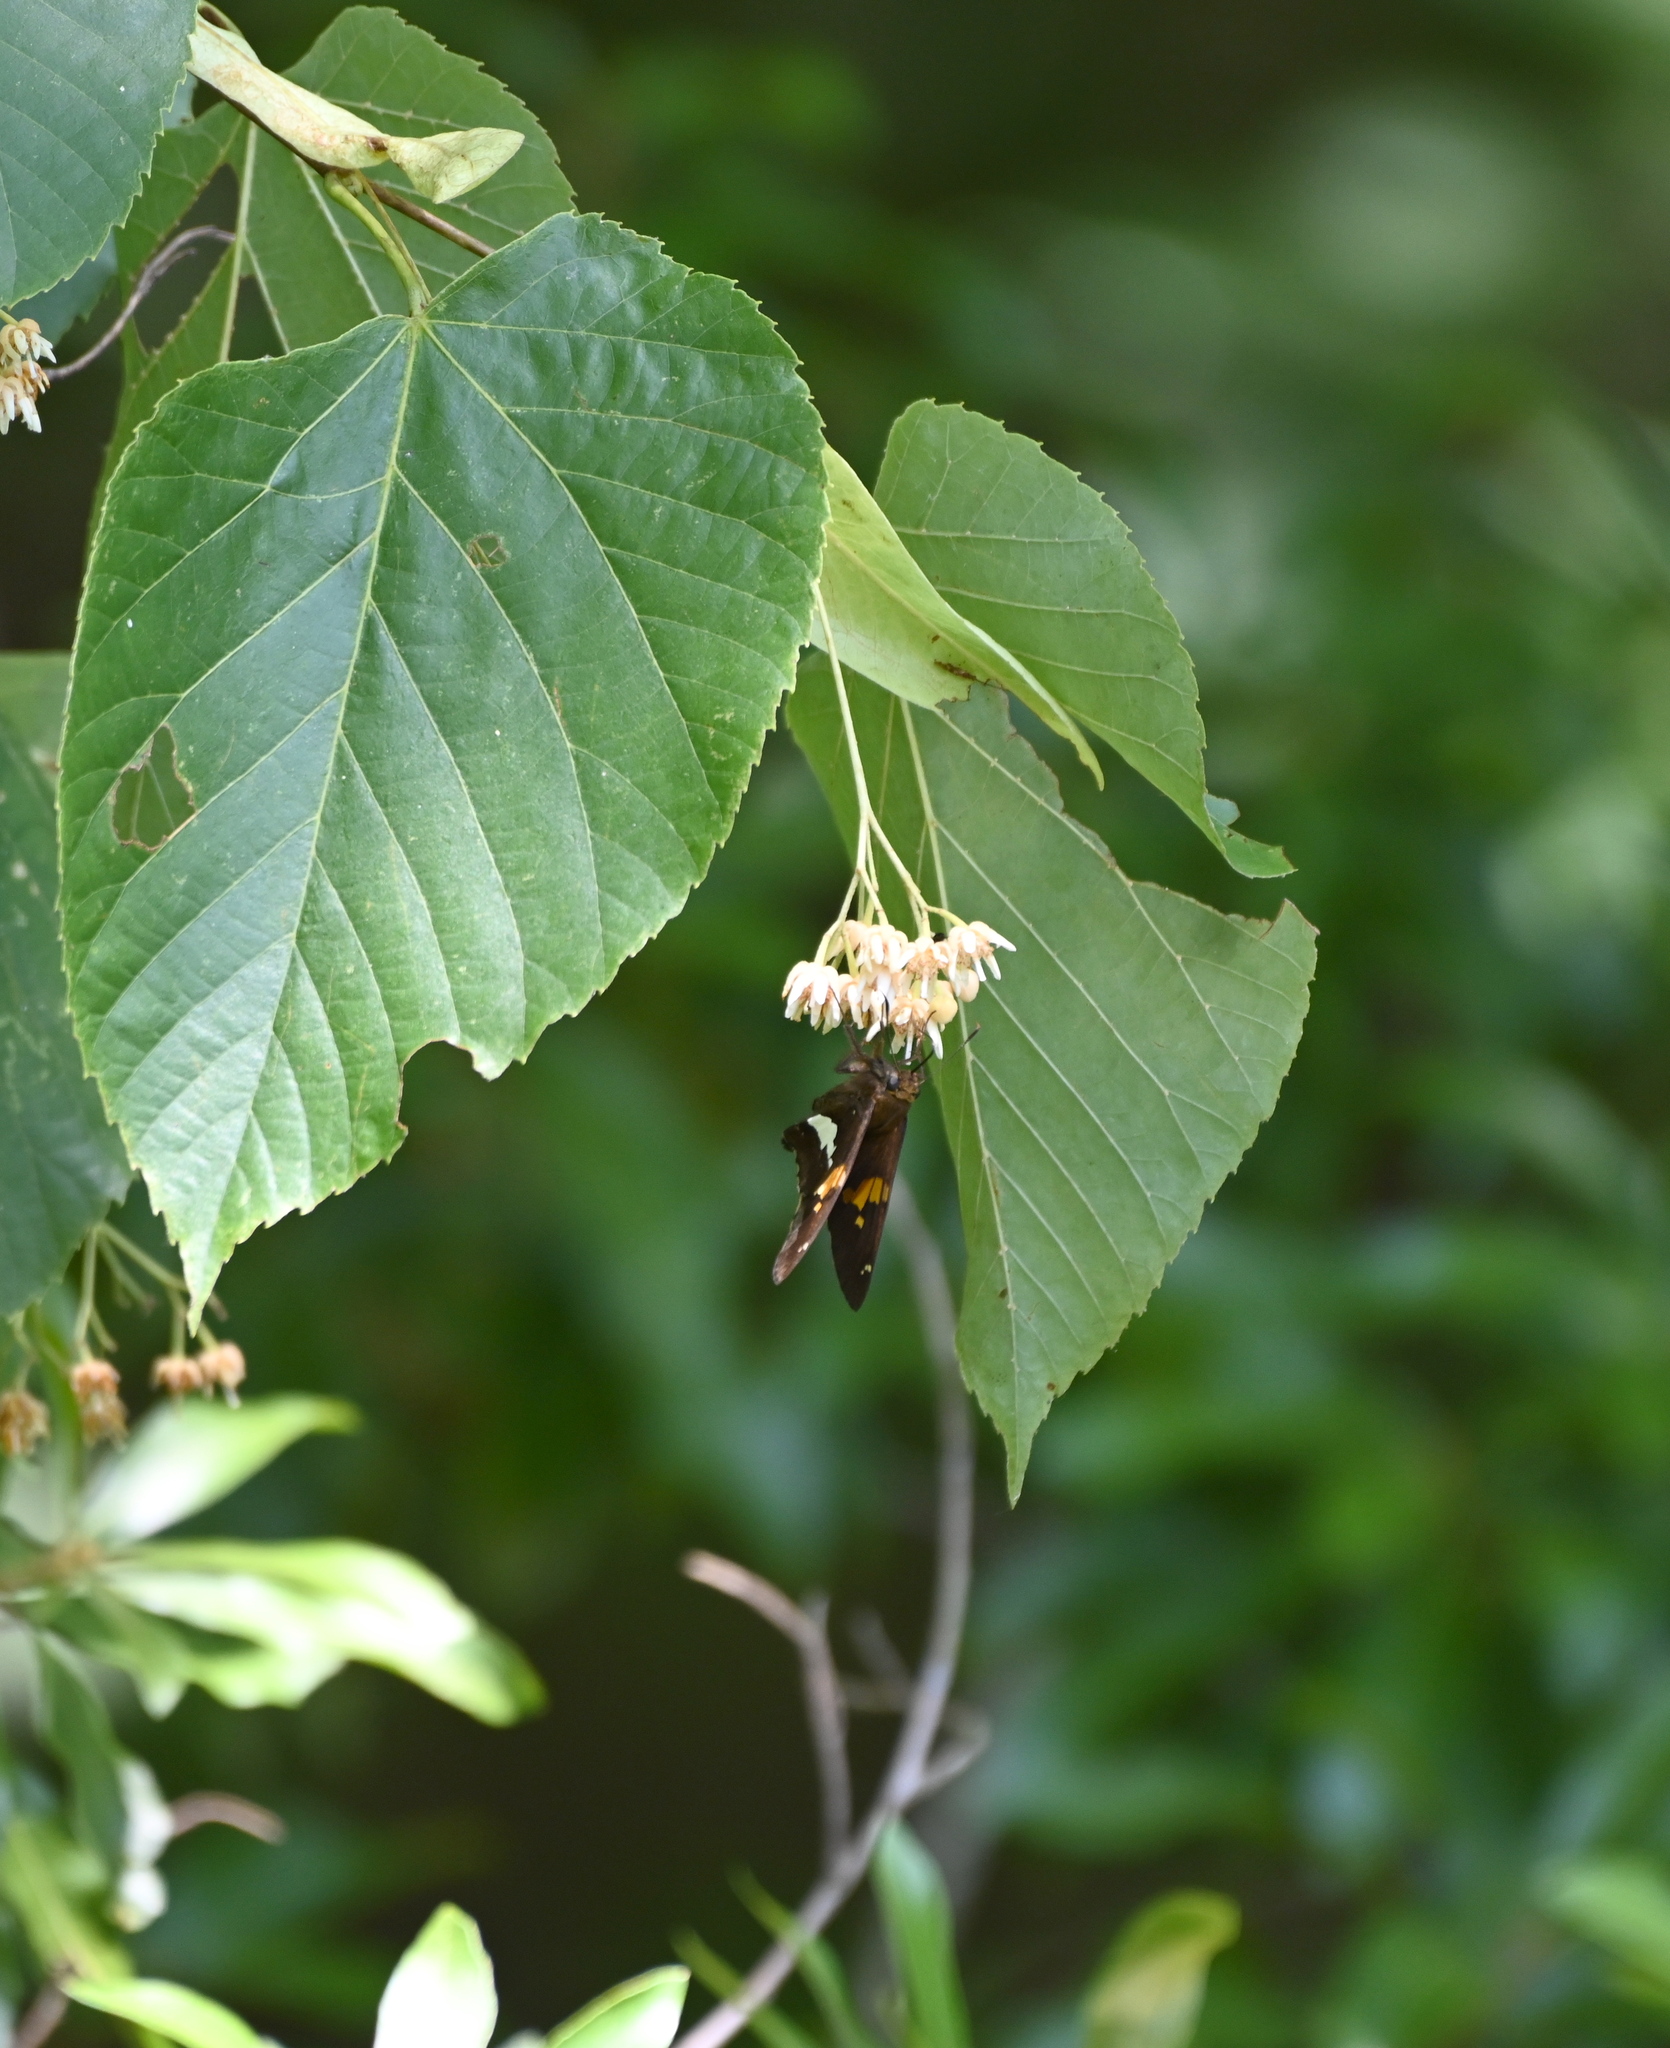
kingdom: Animalia
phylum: Arthropoda
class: Insecta
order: Lepidoptera
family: Hesperiidae
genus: Epargyreus
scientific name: Epargyreus clarus
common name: Silver-spotted skipper
